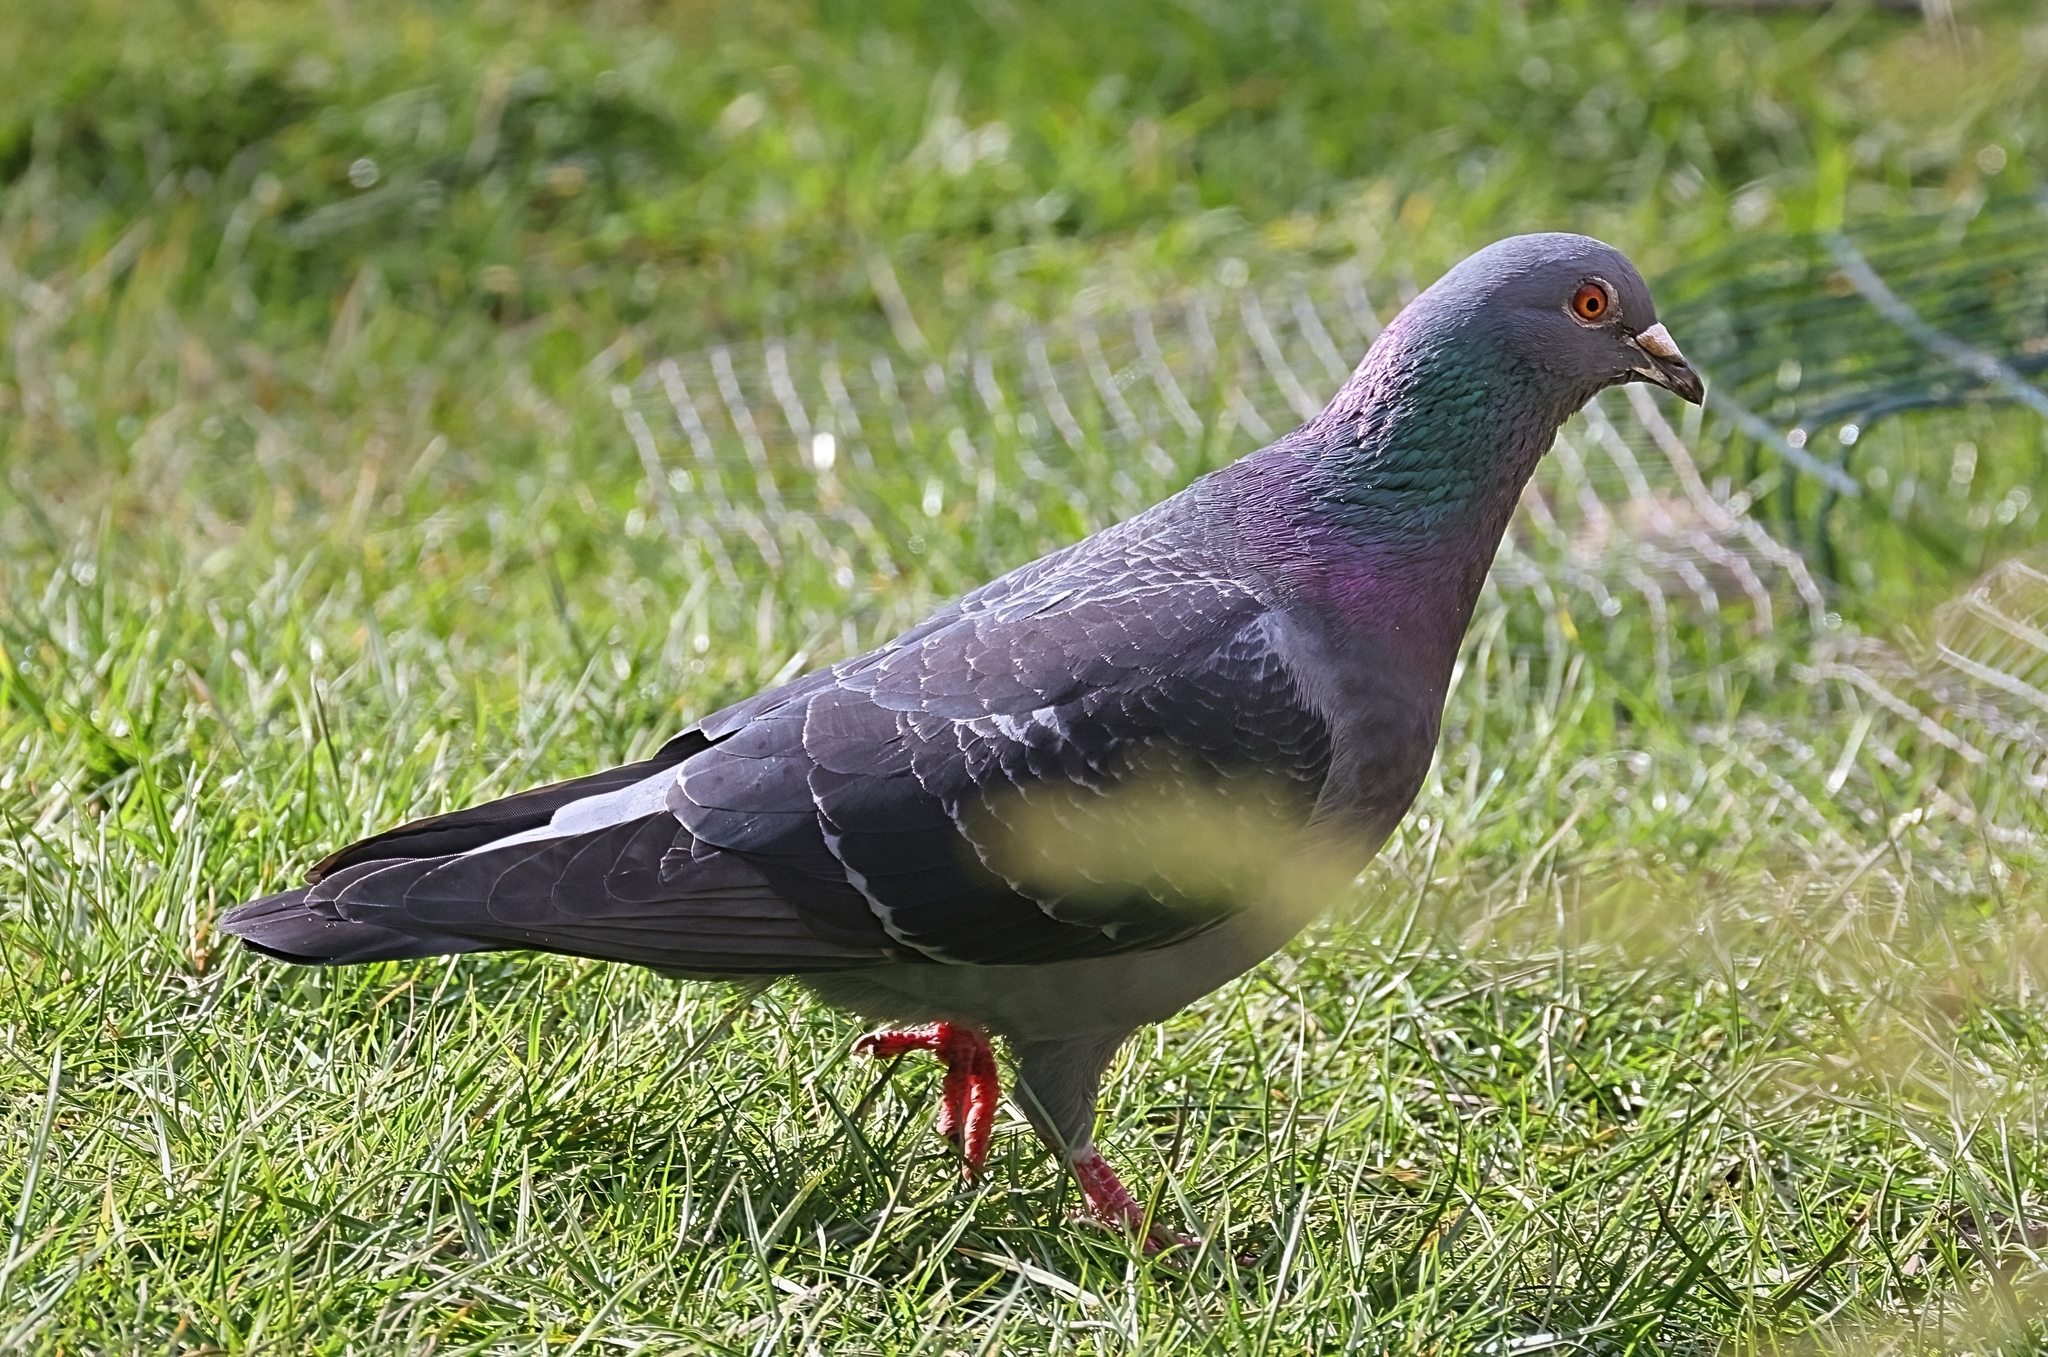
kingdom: Animalia
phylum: Chordata
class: Aves
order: Columbiformes
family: Columbidae
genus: Columba
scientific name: Columba livia
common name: Rock pigeon
